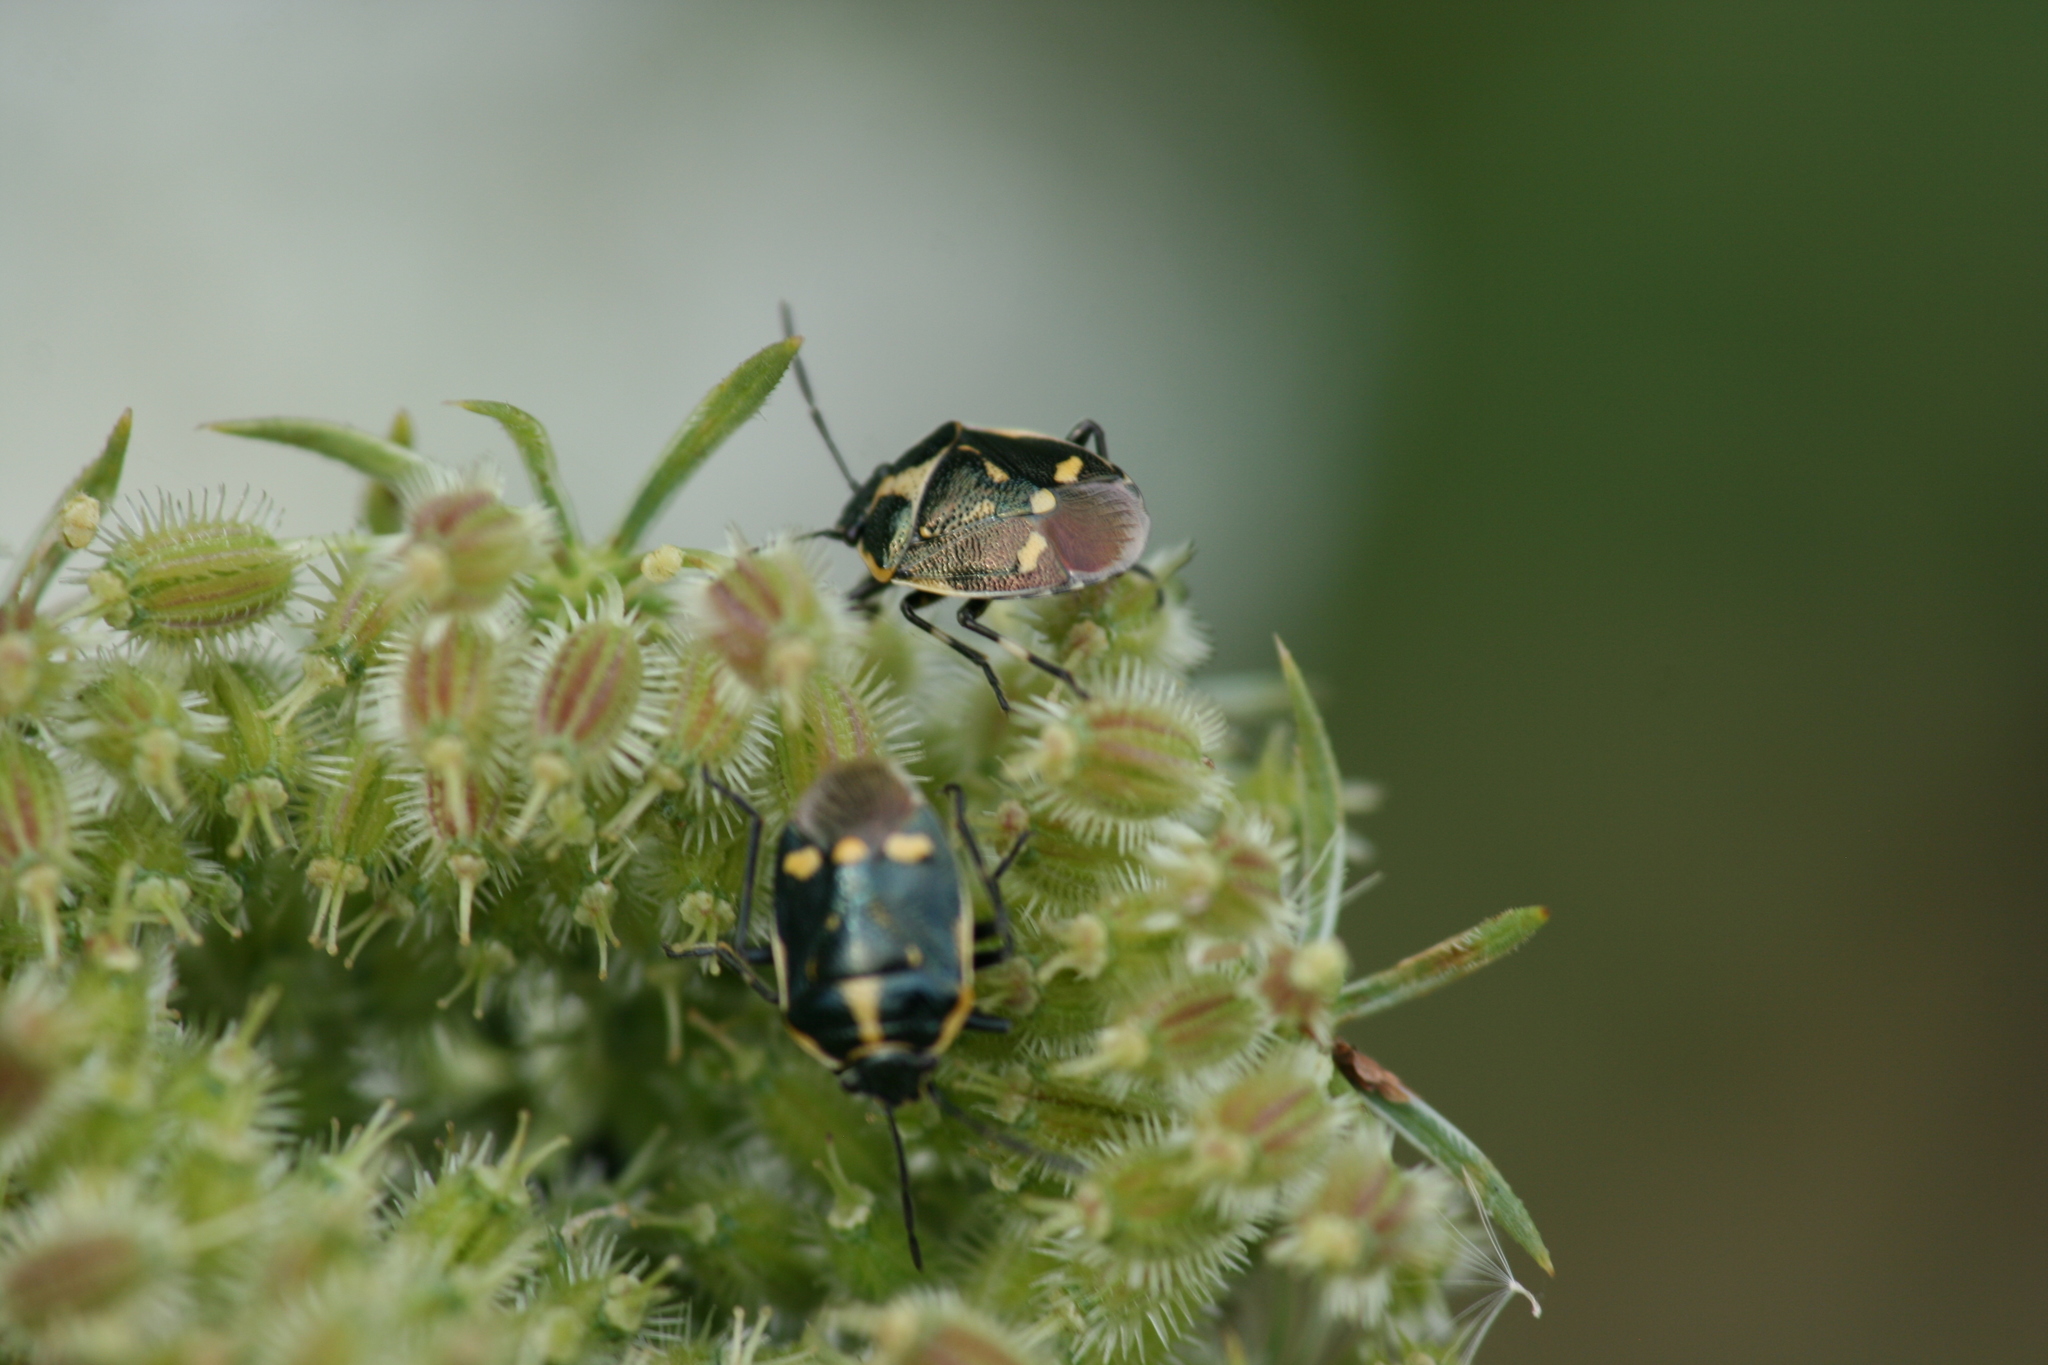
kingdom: Animalia
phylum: Arthropoda
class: Insecta
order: Hemiptera
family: Pentatomidae
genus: Eurydema
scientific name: Eurydema oleracea
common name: Cabbage bug
